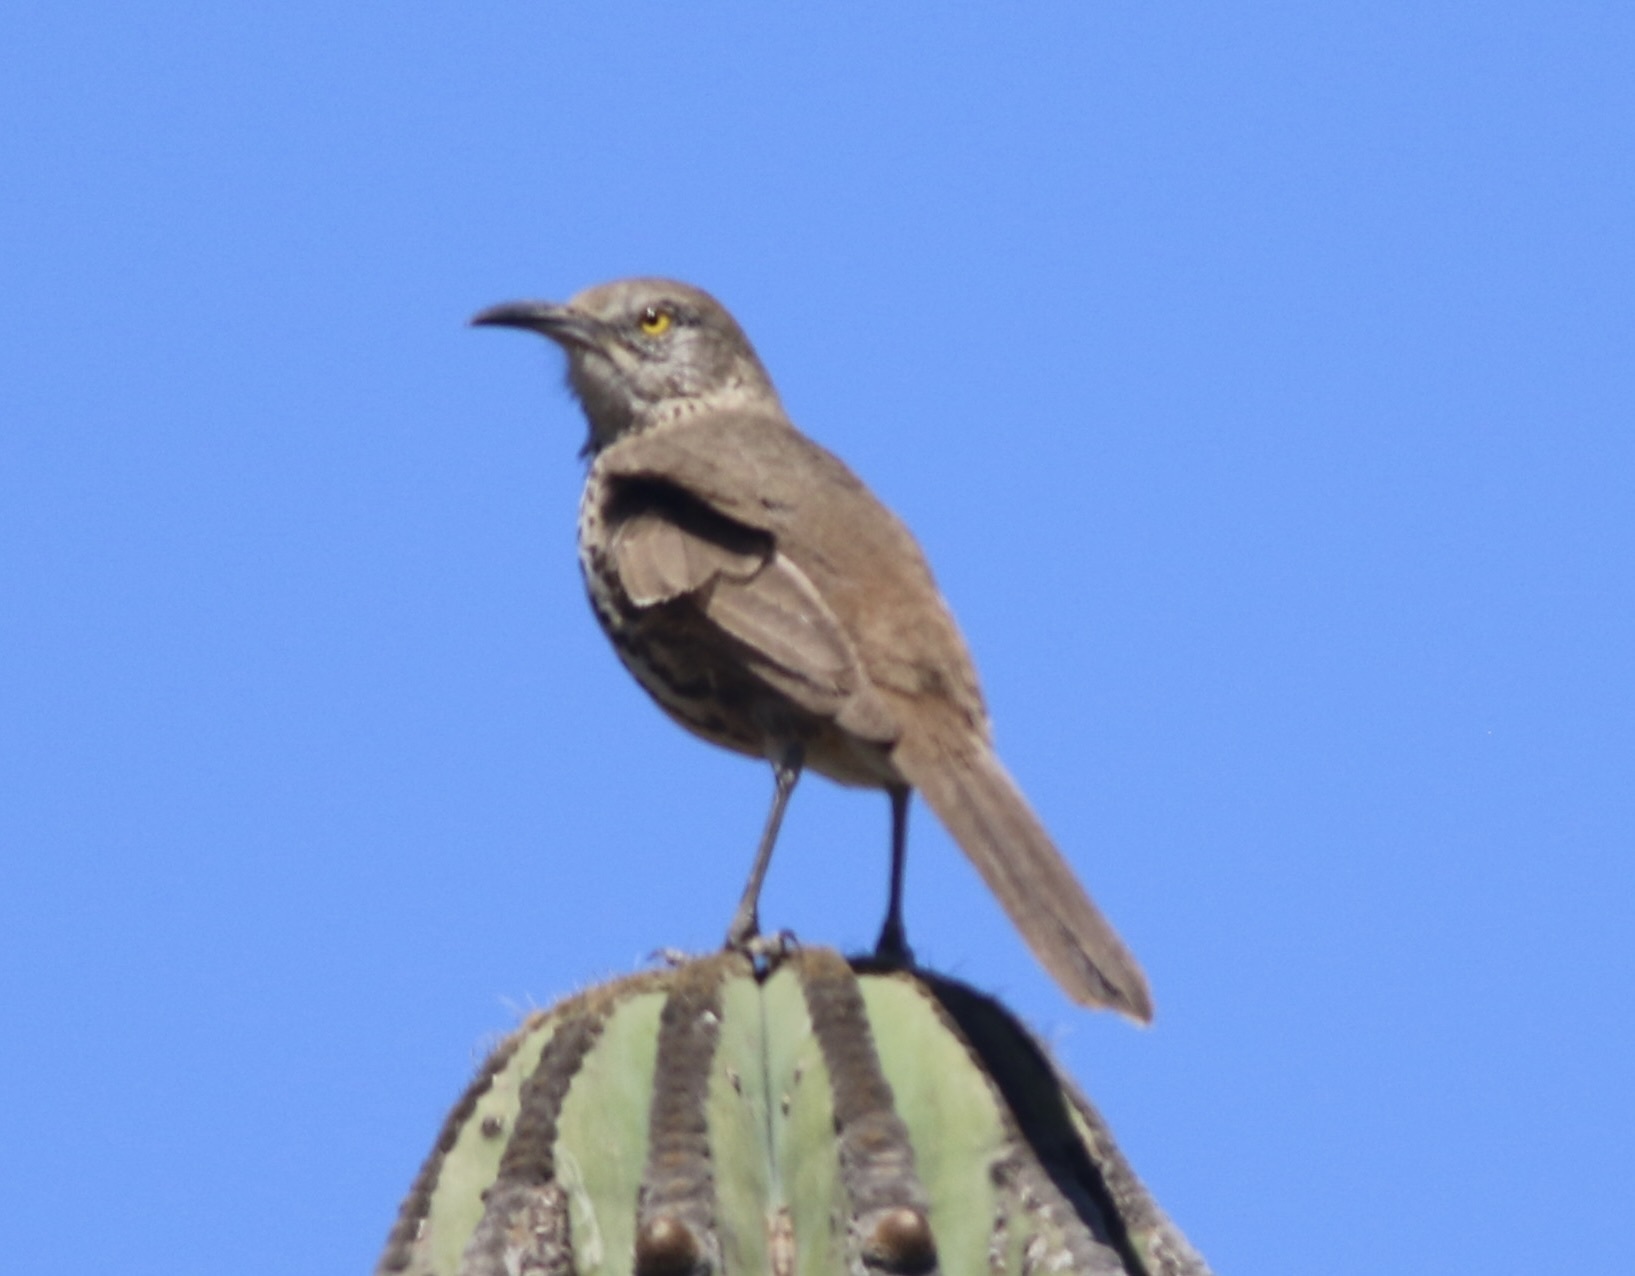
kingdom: Animalia
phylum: Chordata
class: Aves
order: Passeriformes
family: Mimidae
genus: Toxostoma
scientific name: Toxostoma cinereum
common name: Gray thrasher
